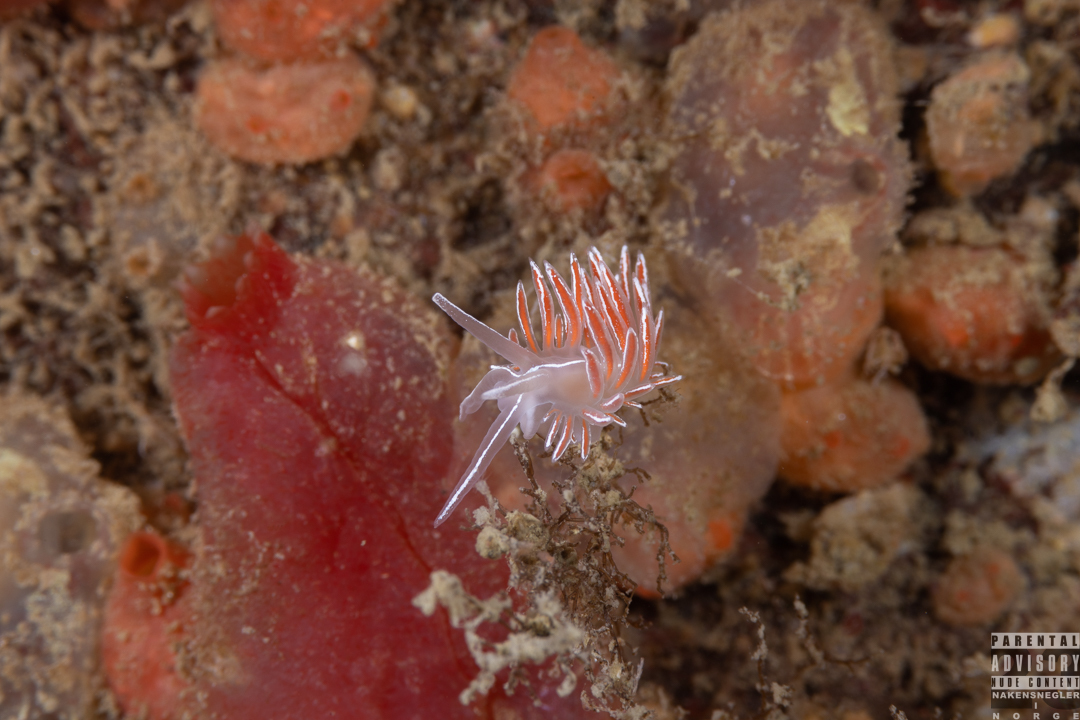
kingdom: Animalia
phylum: Mollusca
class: Gastropoda
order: Nudibranchia
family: Coryphellidae
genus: Coryphella
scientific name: Coryphella lineata
